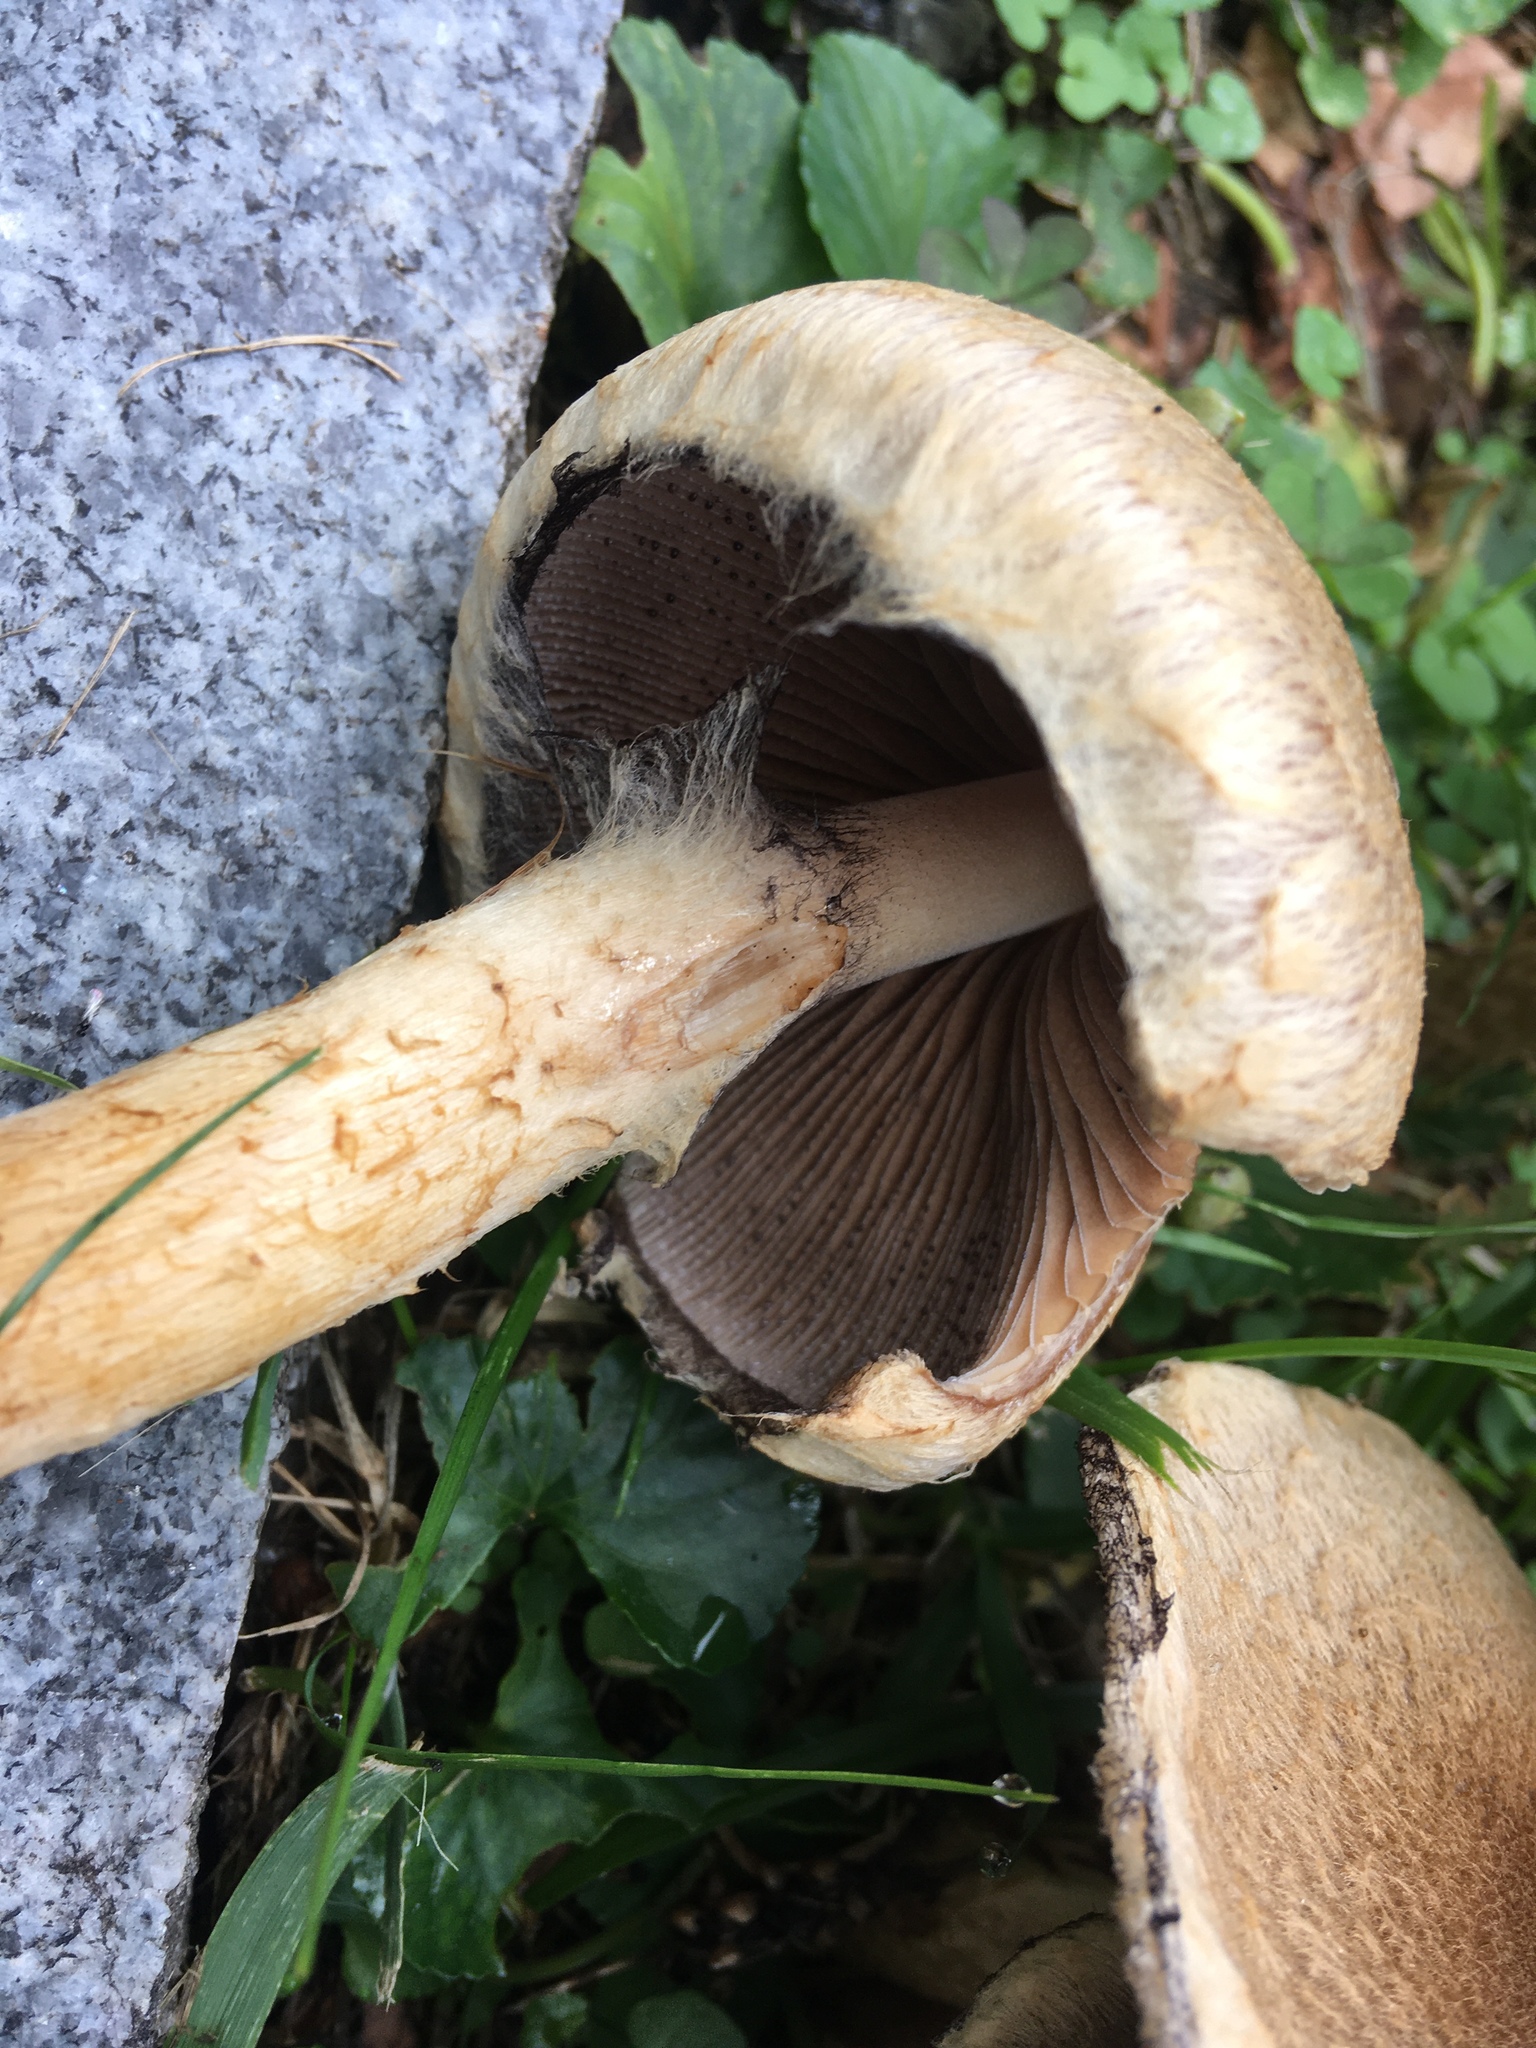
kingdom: Fungi
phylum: Basidiomycota
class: Agaricomycetes
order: Agaricales
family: Psathyrellaceae
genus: Lacrymaria
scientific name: Lacrymaria lacrymabunda
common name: Weeping widow
